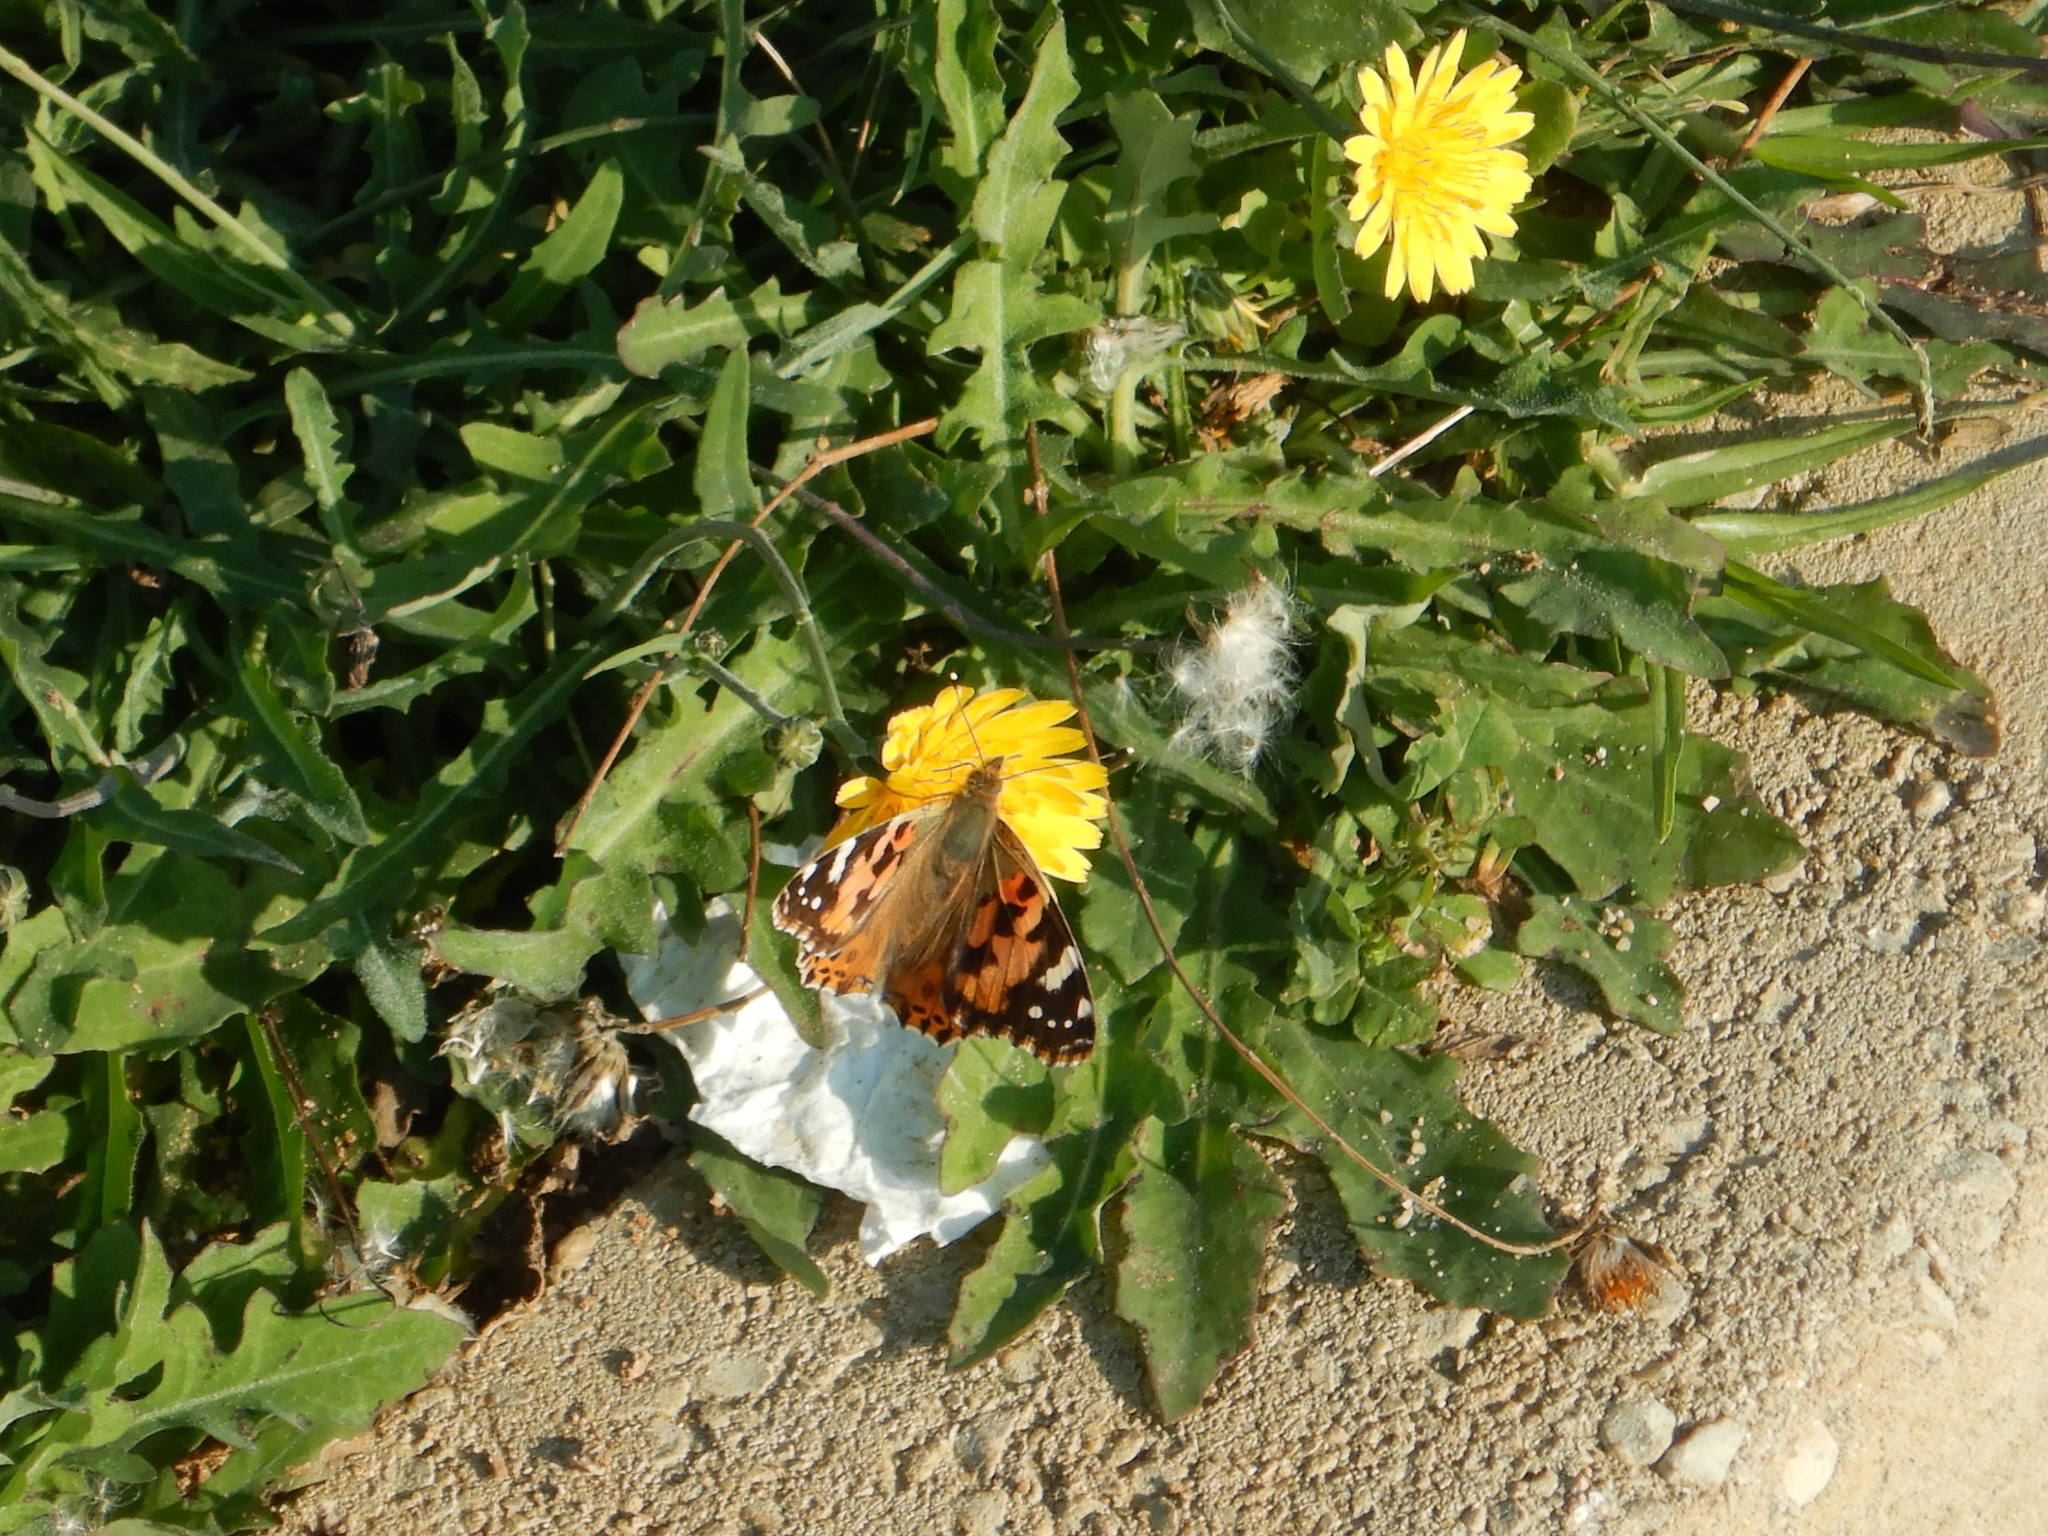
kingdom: Animalia
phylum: Arthropoda
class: Insecta
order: Lepidoptera
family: Nymphalidae
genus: Vanessa
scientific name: Vanessa cardui
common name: Painted lady
